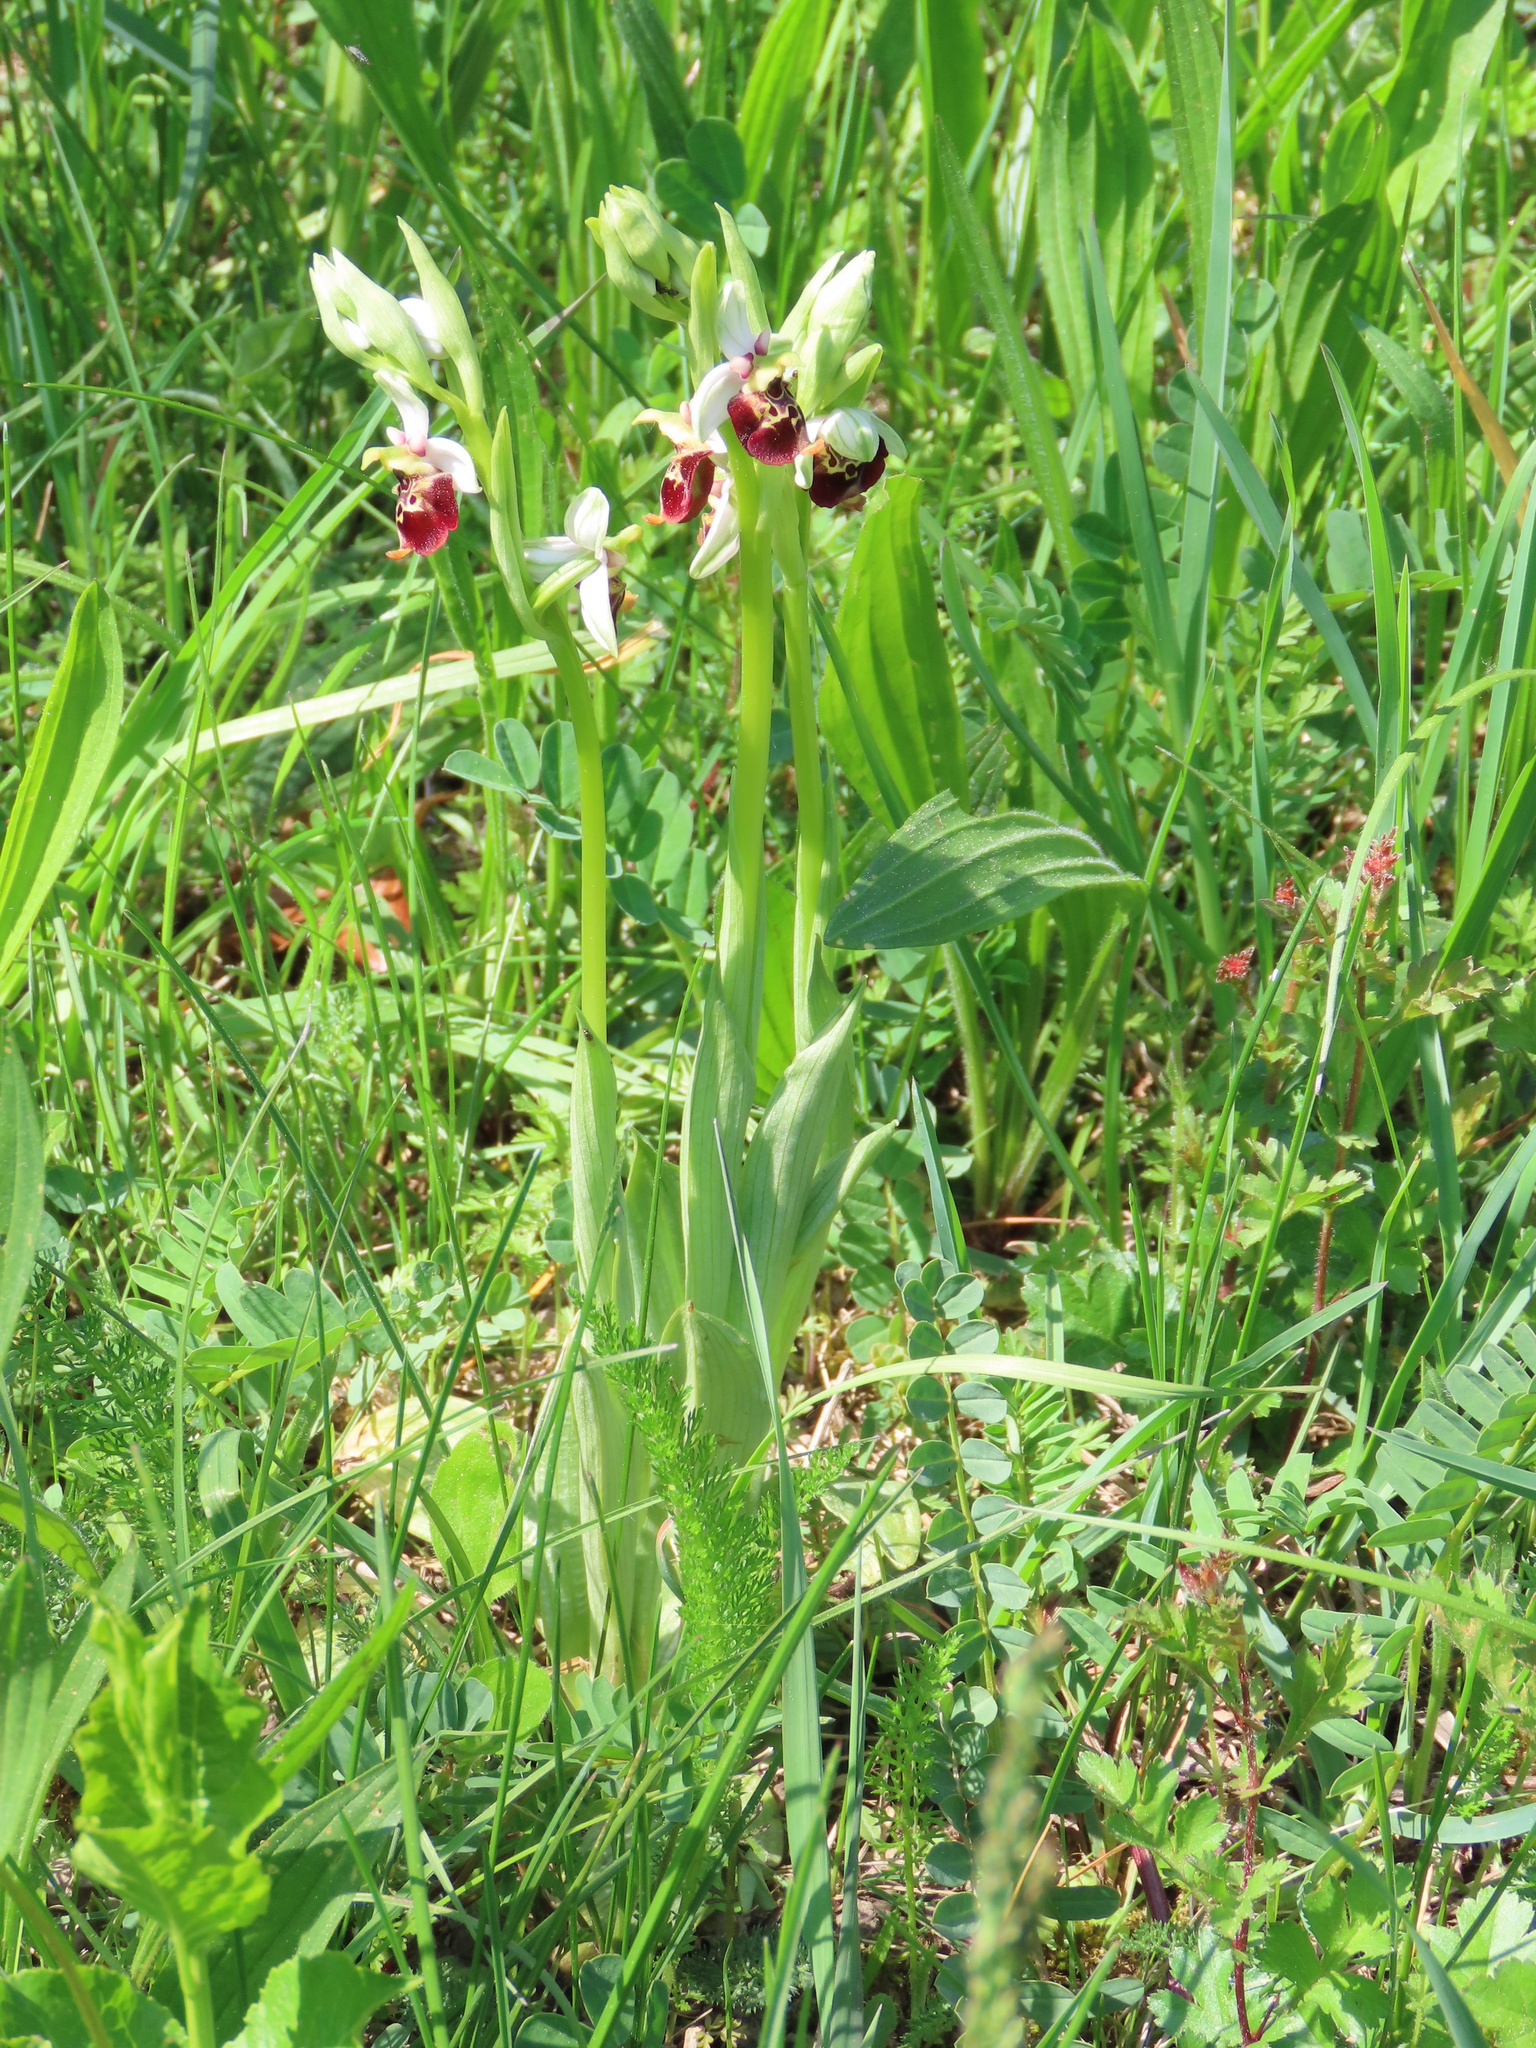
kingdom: Plantae
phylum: Tracheophyta
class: Liliopsida
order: Asparagales
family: Orchidaceae
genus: Ophrys
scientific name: Ophrys holosericea
